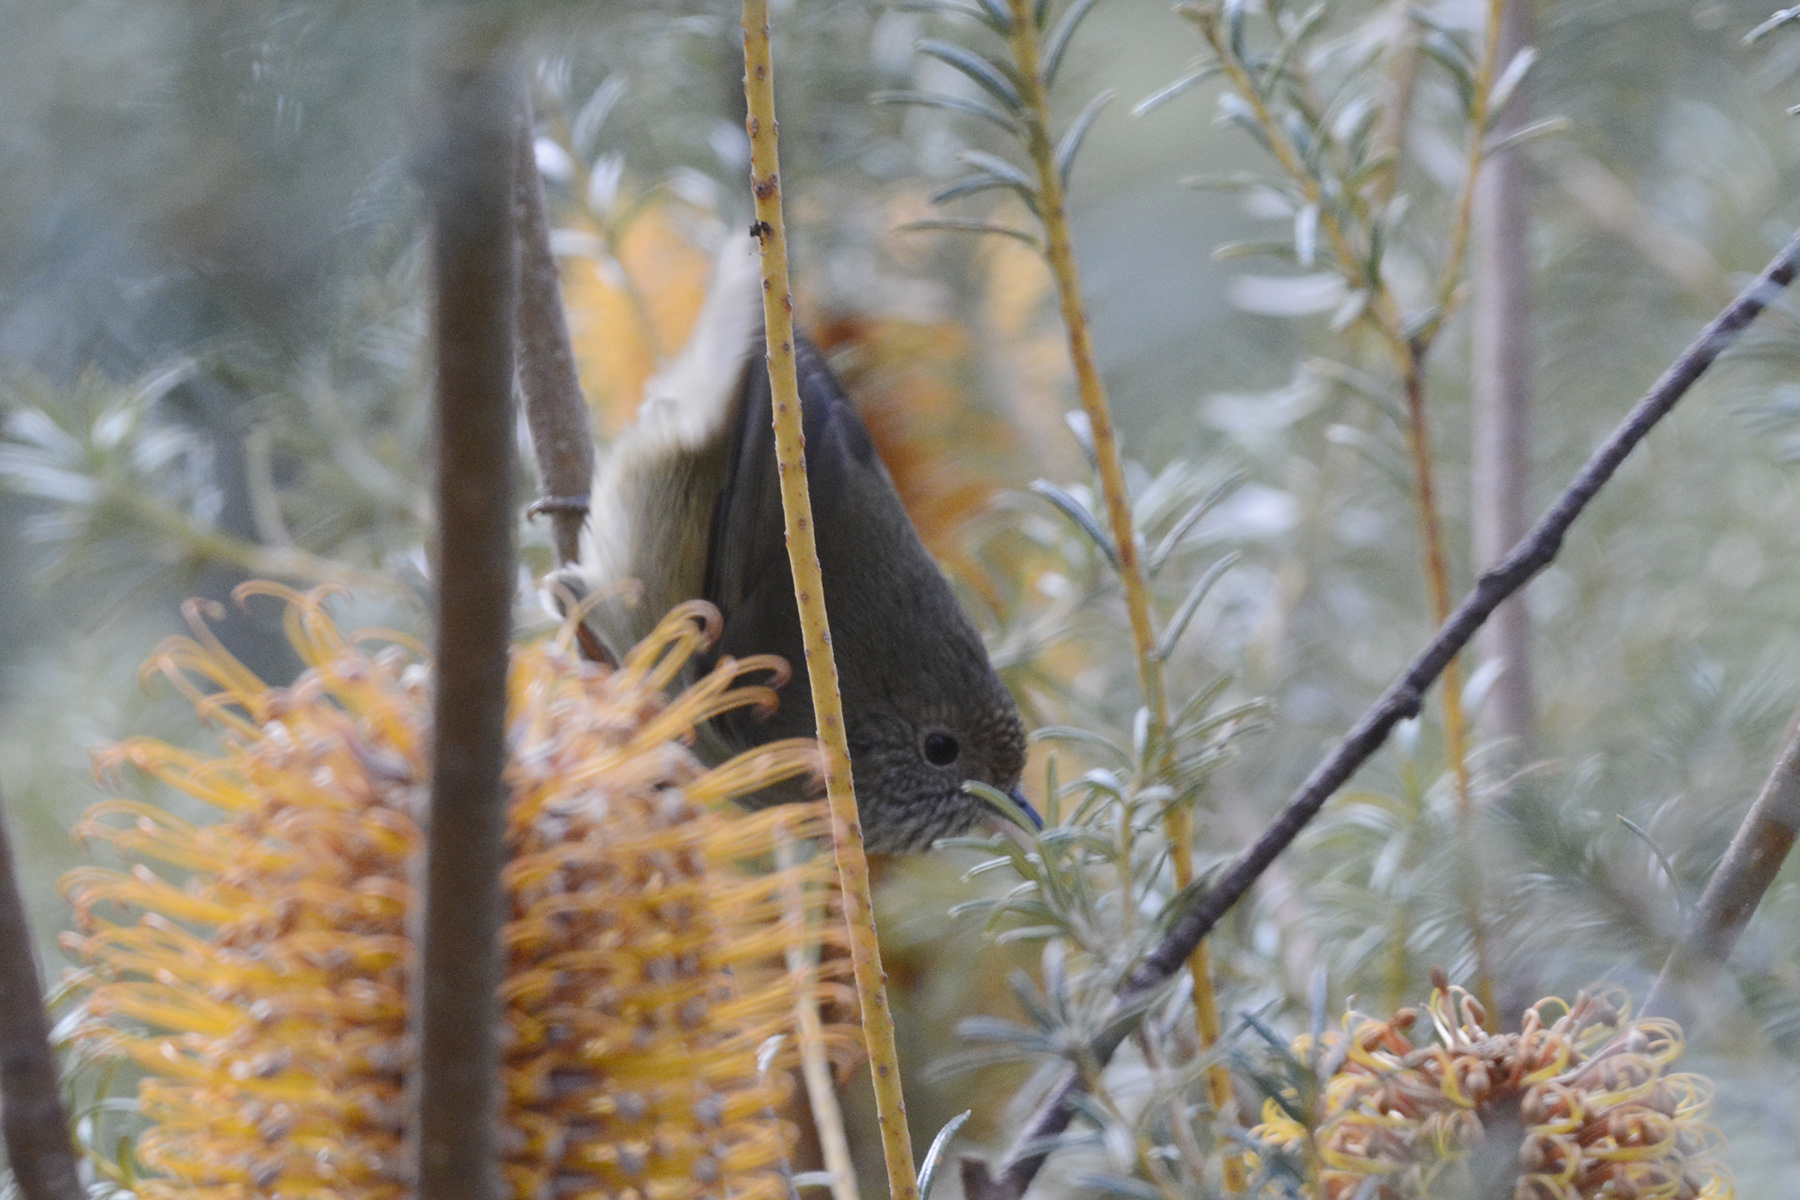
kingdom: Animalia
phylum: Chordata
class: Aves
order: Passeriformes
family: Acanthizidae
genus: Acanthiza
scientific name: Acanthiza pusilla
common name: Brown thornbill
